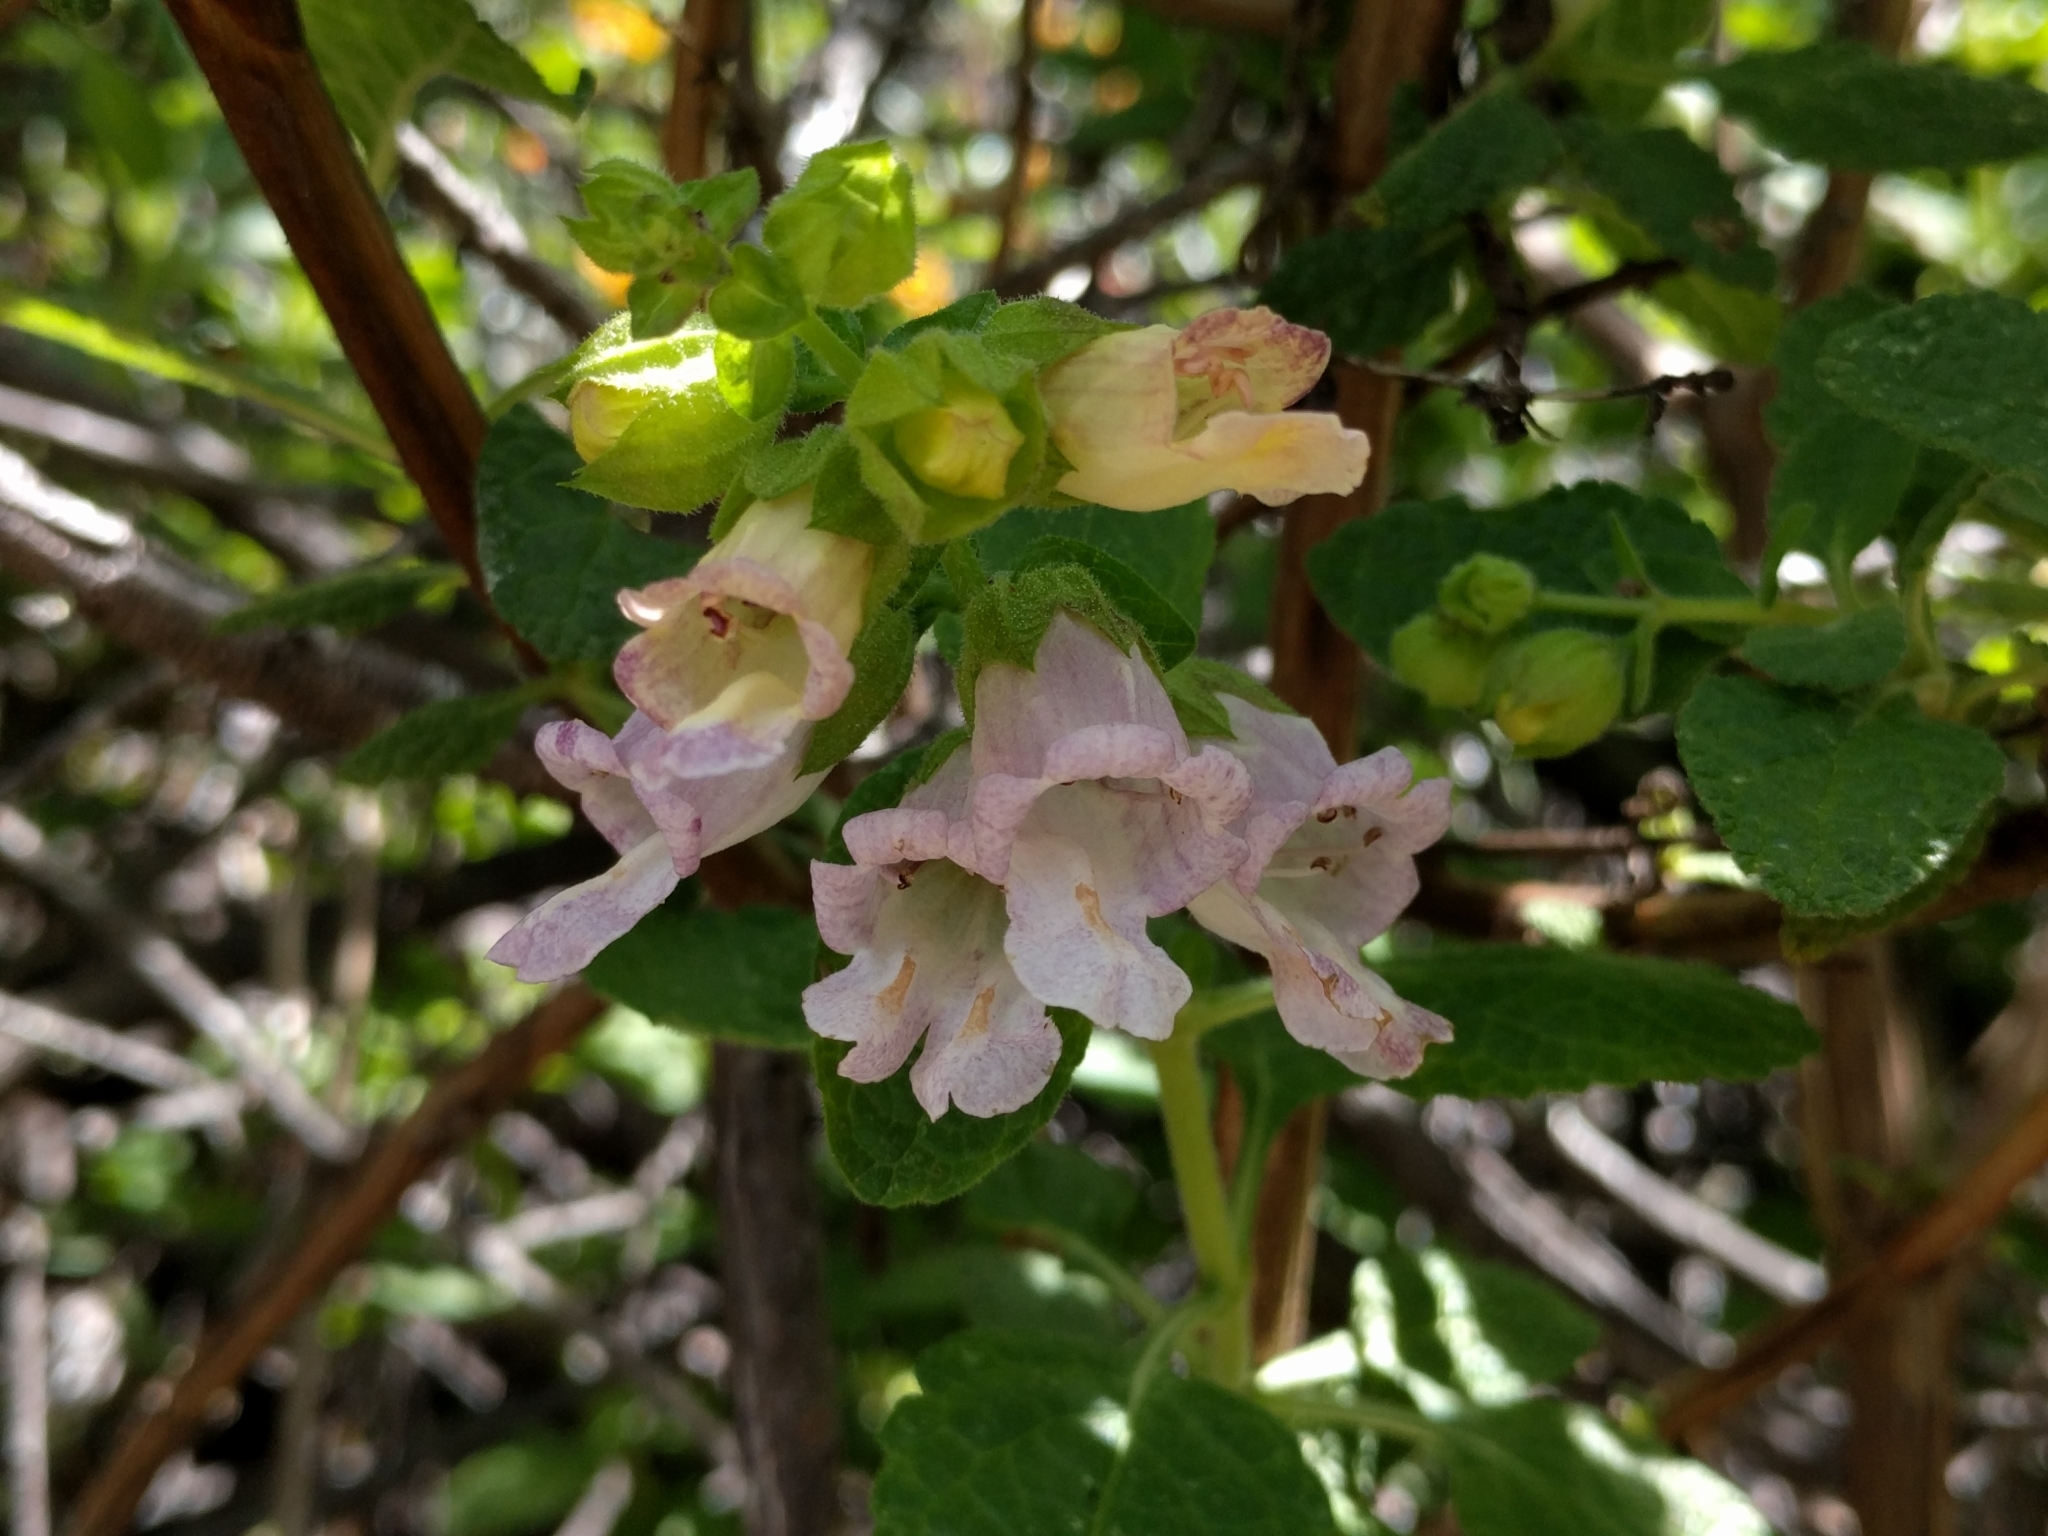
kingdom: Plantae
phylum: Tracheophyta
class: Magnoliopsida
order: Lamiales
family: Lamiaceae
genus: Lepechinia
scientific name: Lepechinia calycina
